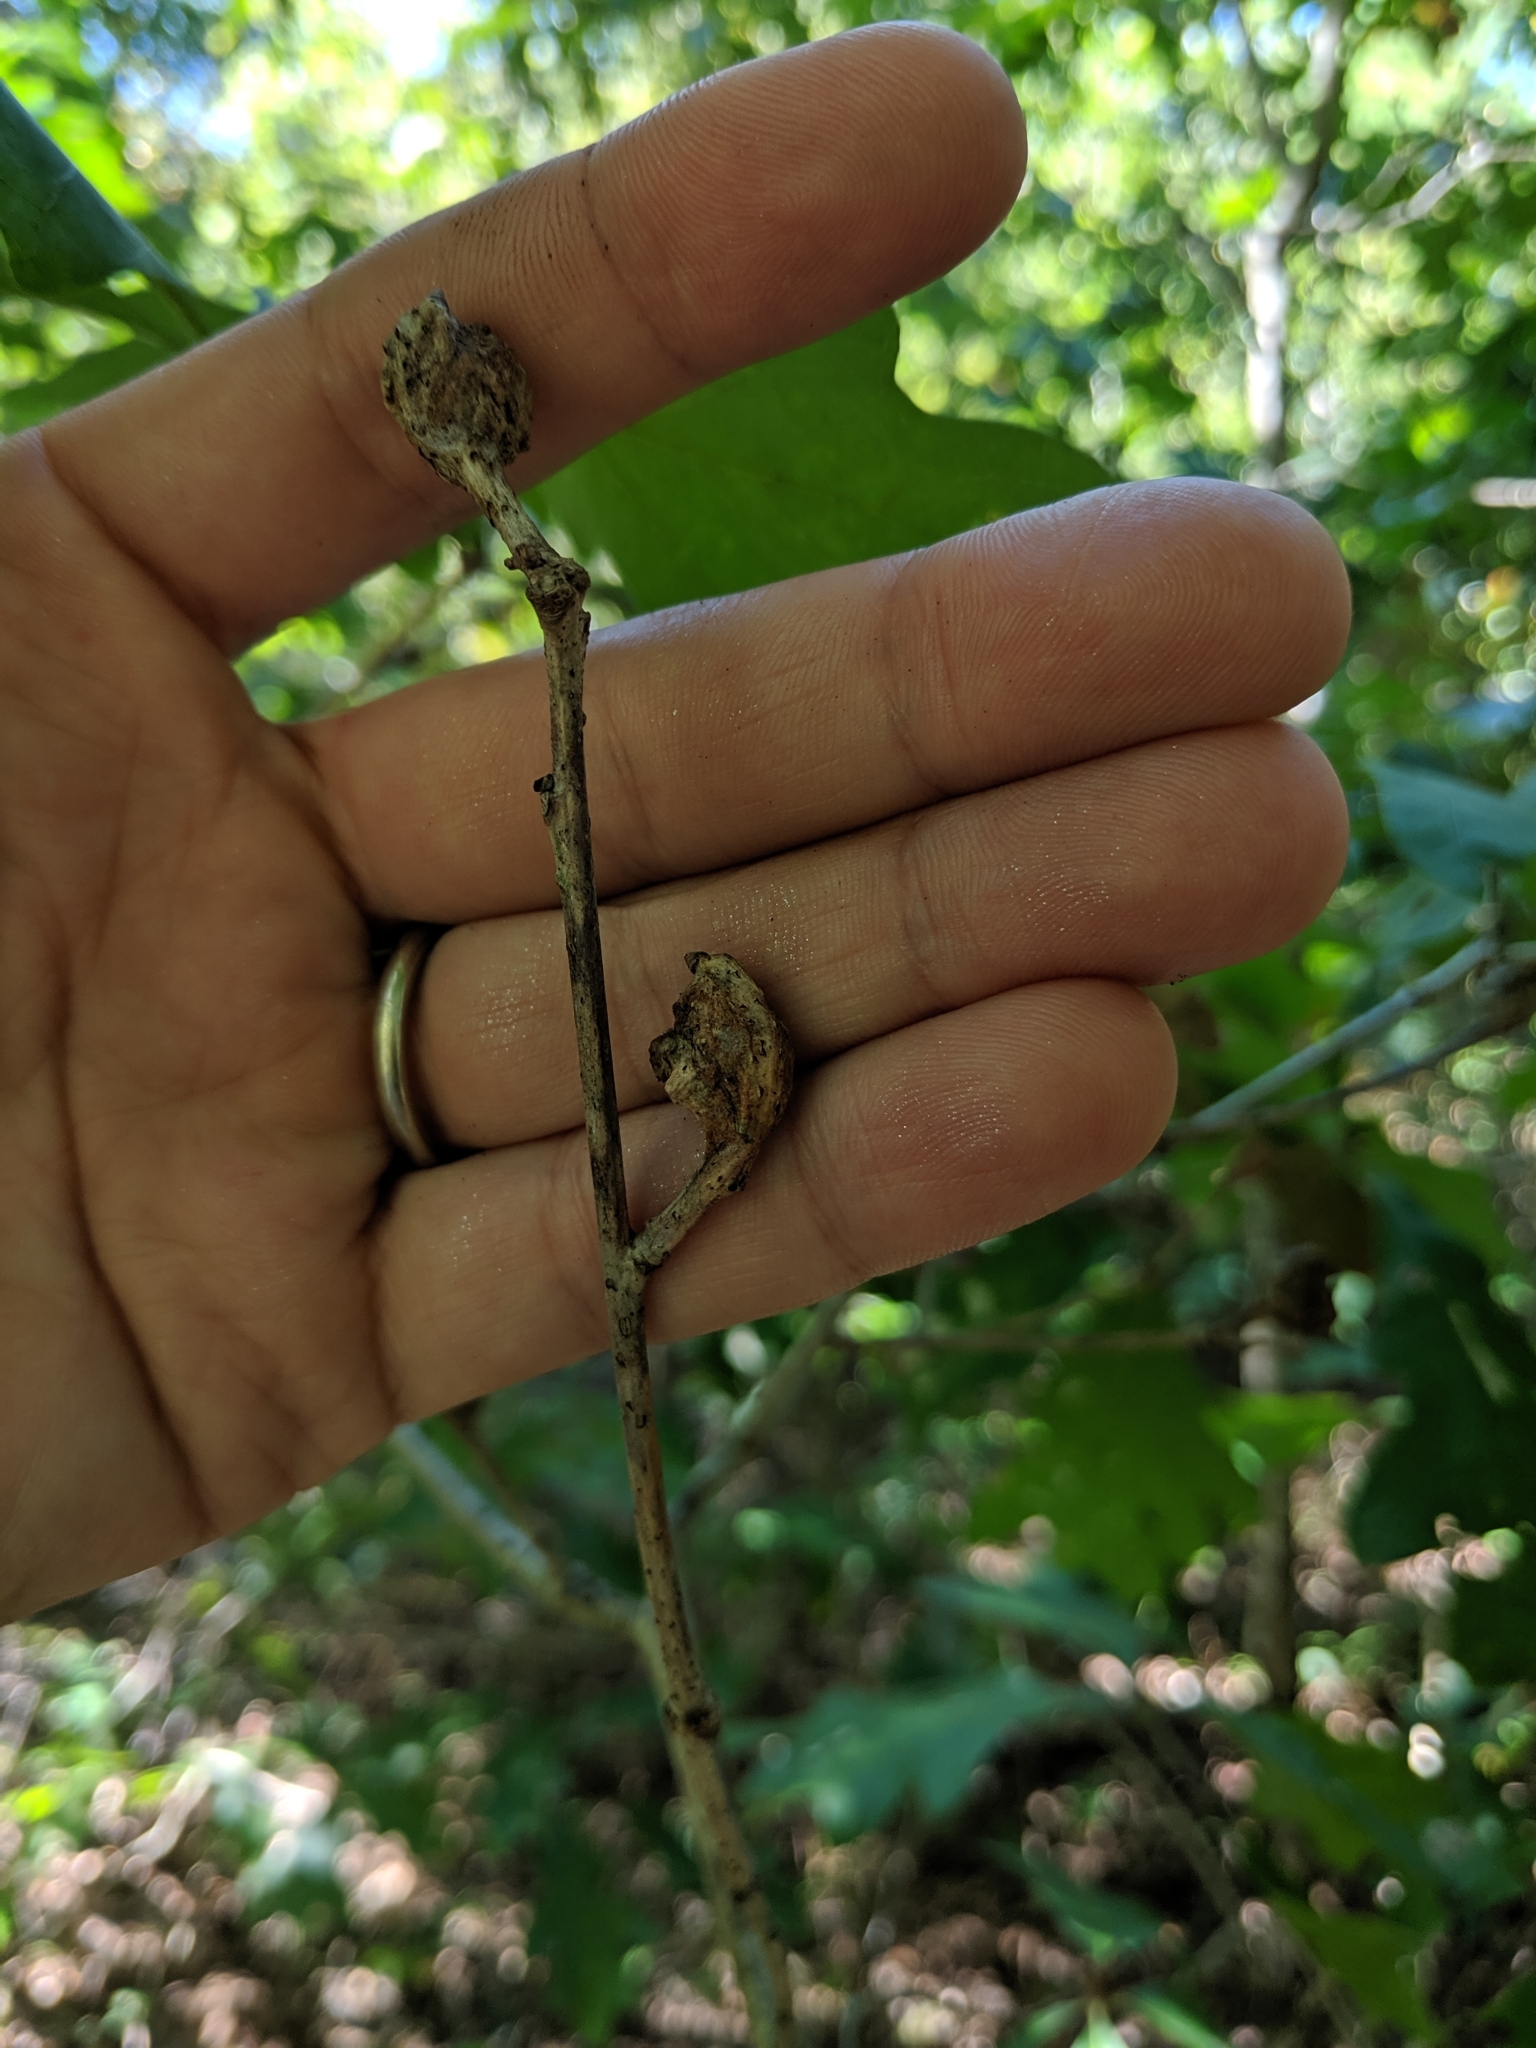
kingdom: Animalia
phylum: Arthropoda
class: Insecta
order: Hymenoptera
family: Cynipidae
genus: Callirhytis
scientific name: Callirhytis clavula
